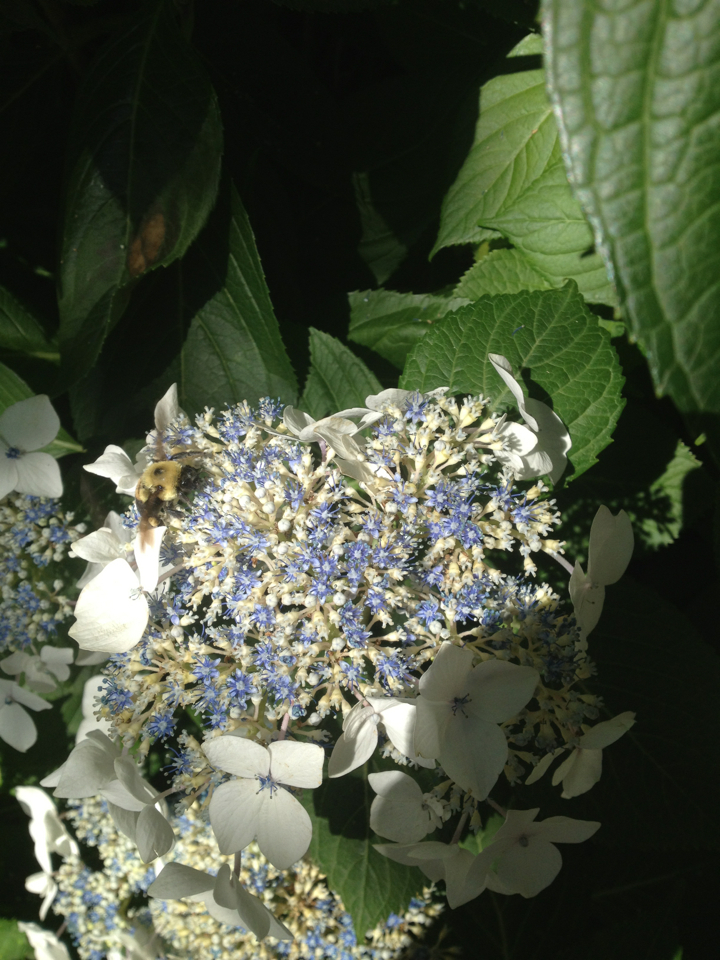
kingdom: Animalia
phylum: Arthropoda
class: Insecta
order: Hymenoptera
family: Apidae
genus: Bombus
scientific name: Bombus griseocollis
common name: Brown-belted bumble bee
